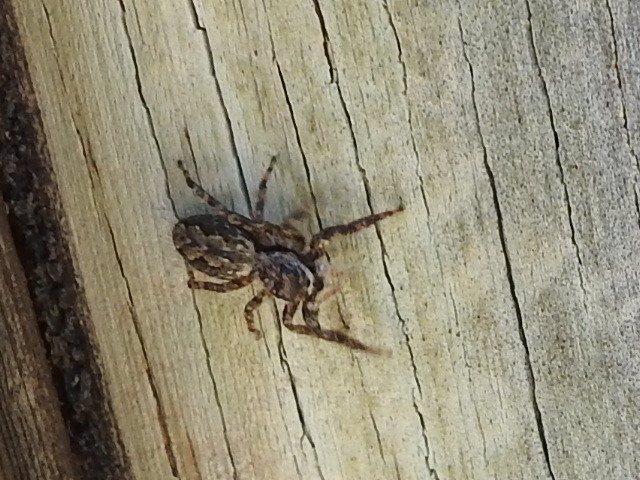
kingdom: Animalia
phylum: Arthropoda
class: Arachnida
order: Araneae
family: Salticidae
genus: Platycryptus
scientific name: Platycryptus undatus
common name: Tan jumping spider
